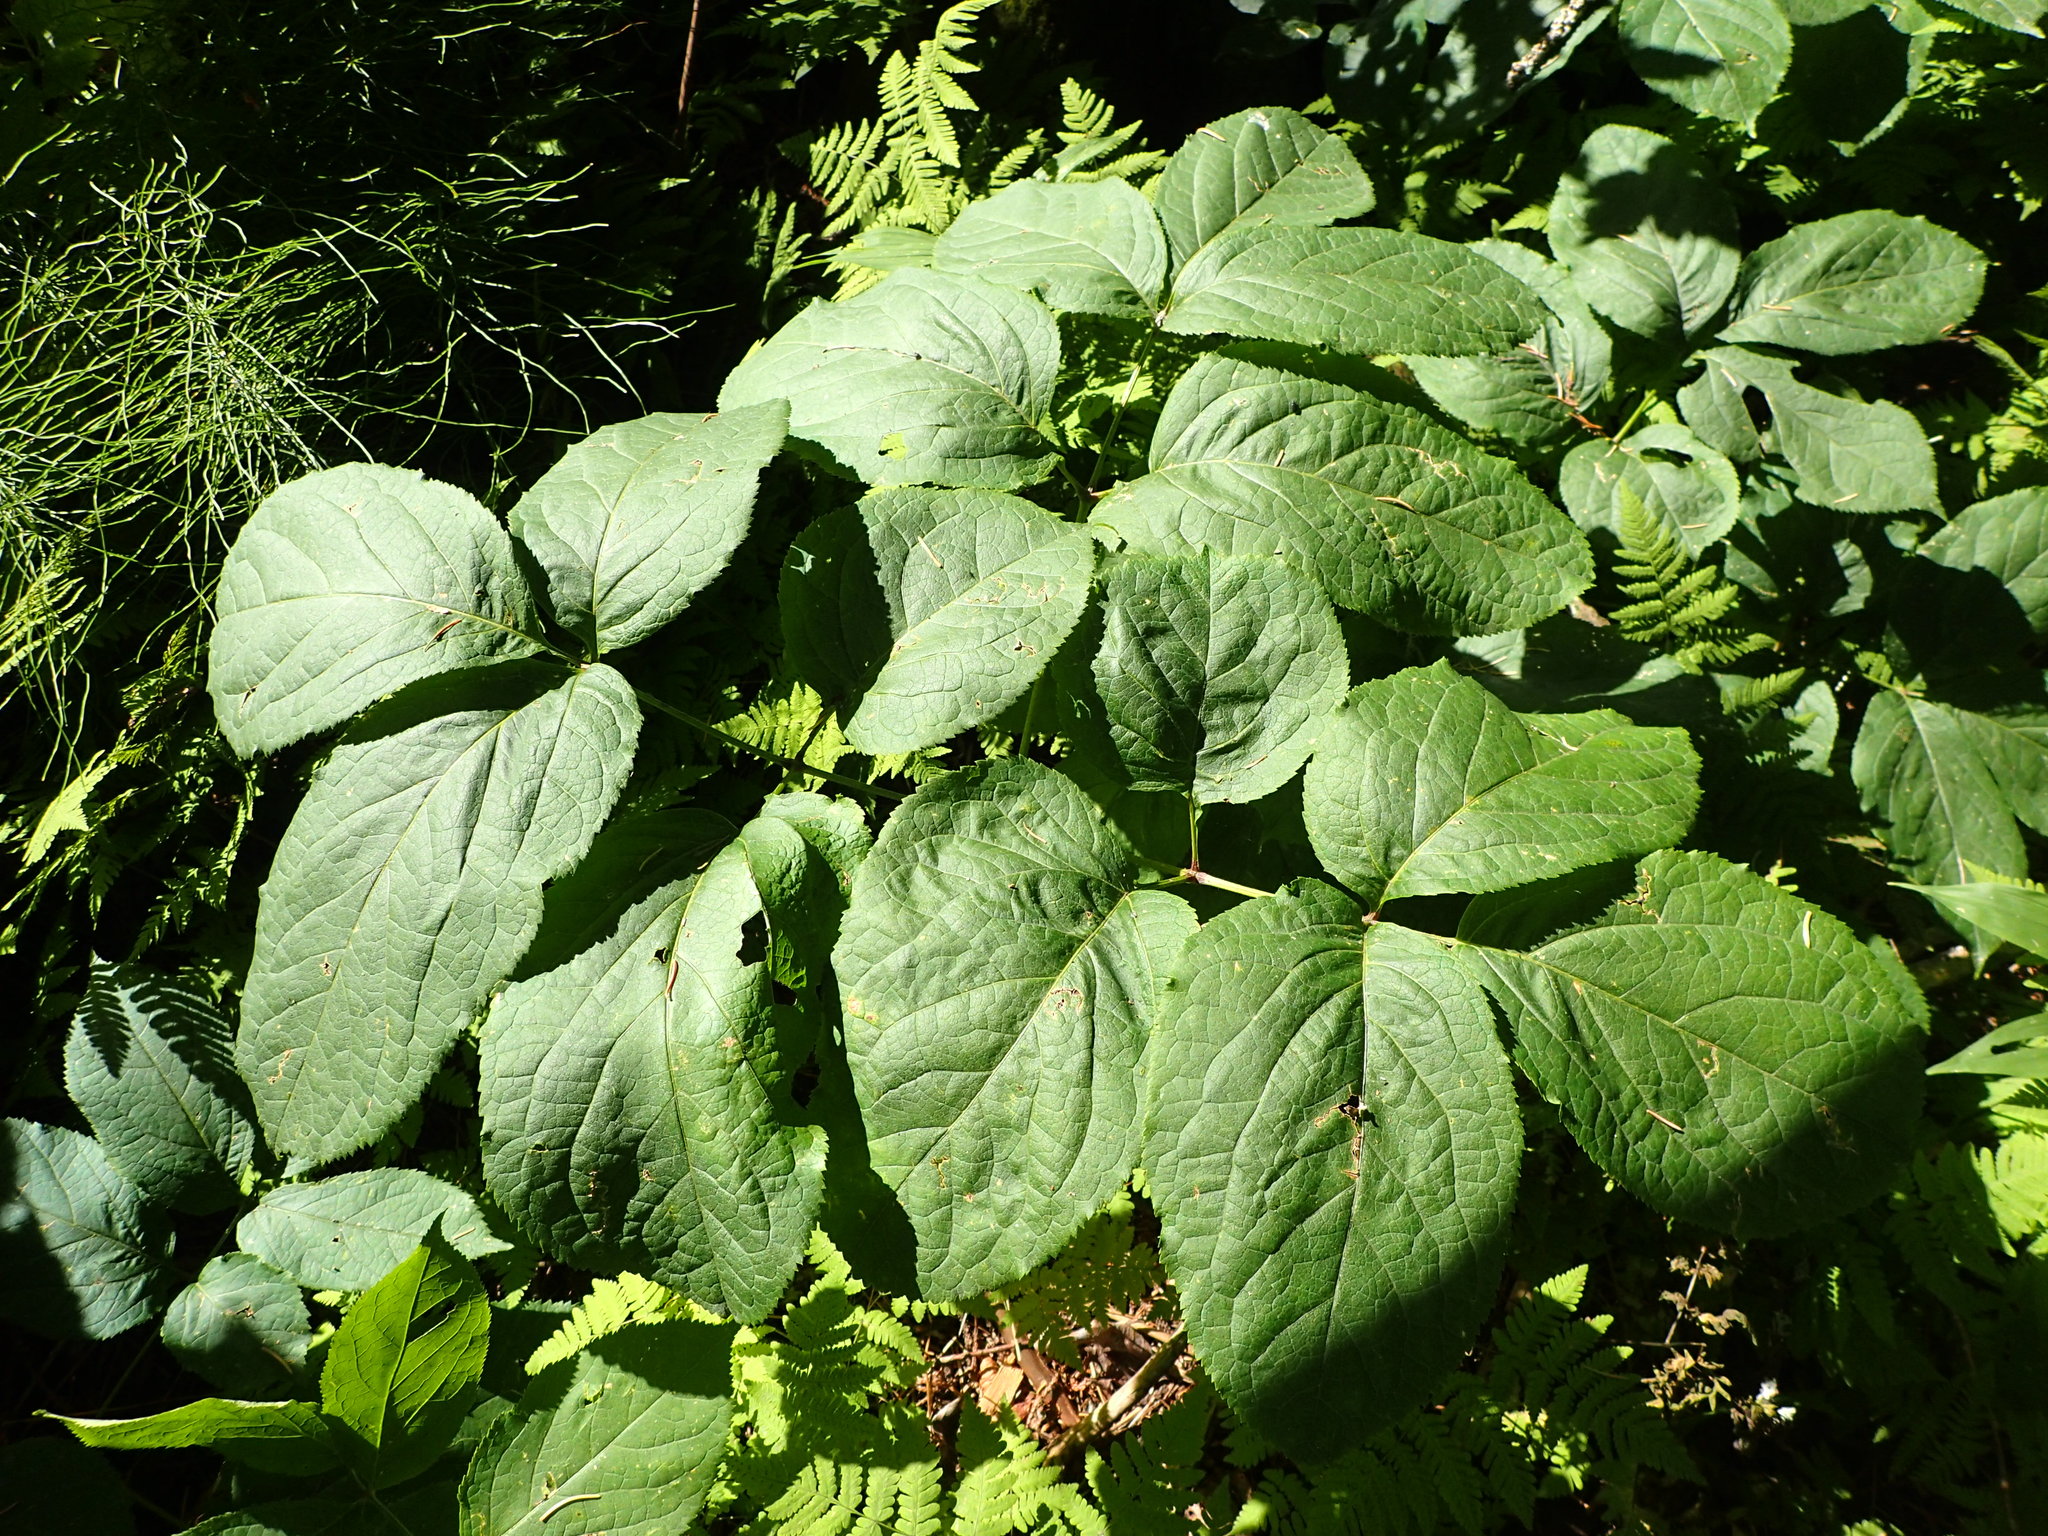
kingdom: Plantae
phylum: Tracheophyta
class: Magnoliopsida
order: Apiales
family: Araliaceae
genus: Aralia
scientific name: Aralia nudicaulis
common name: Wild sarsaparilla
